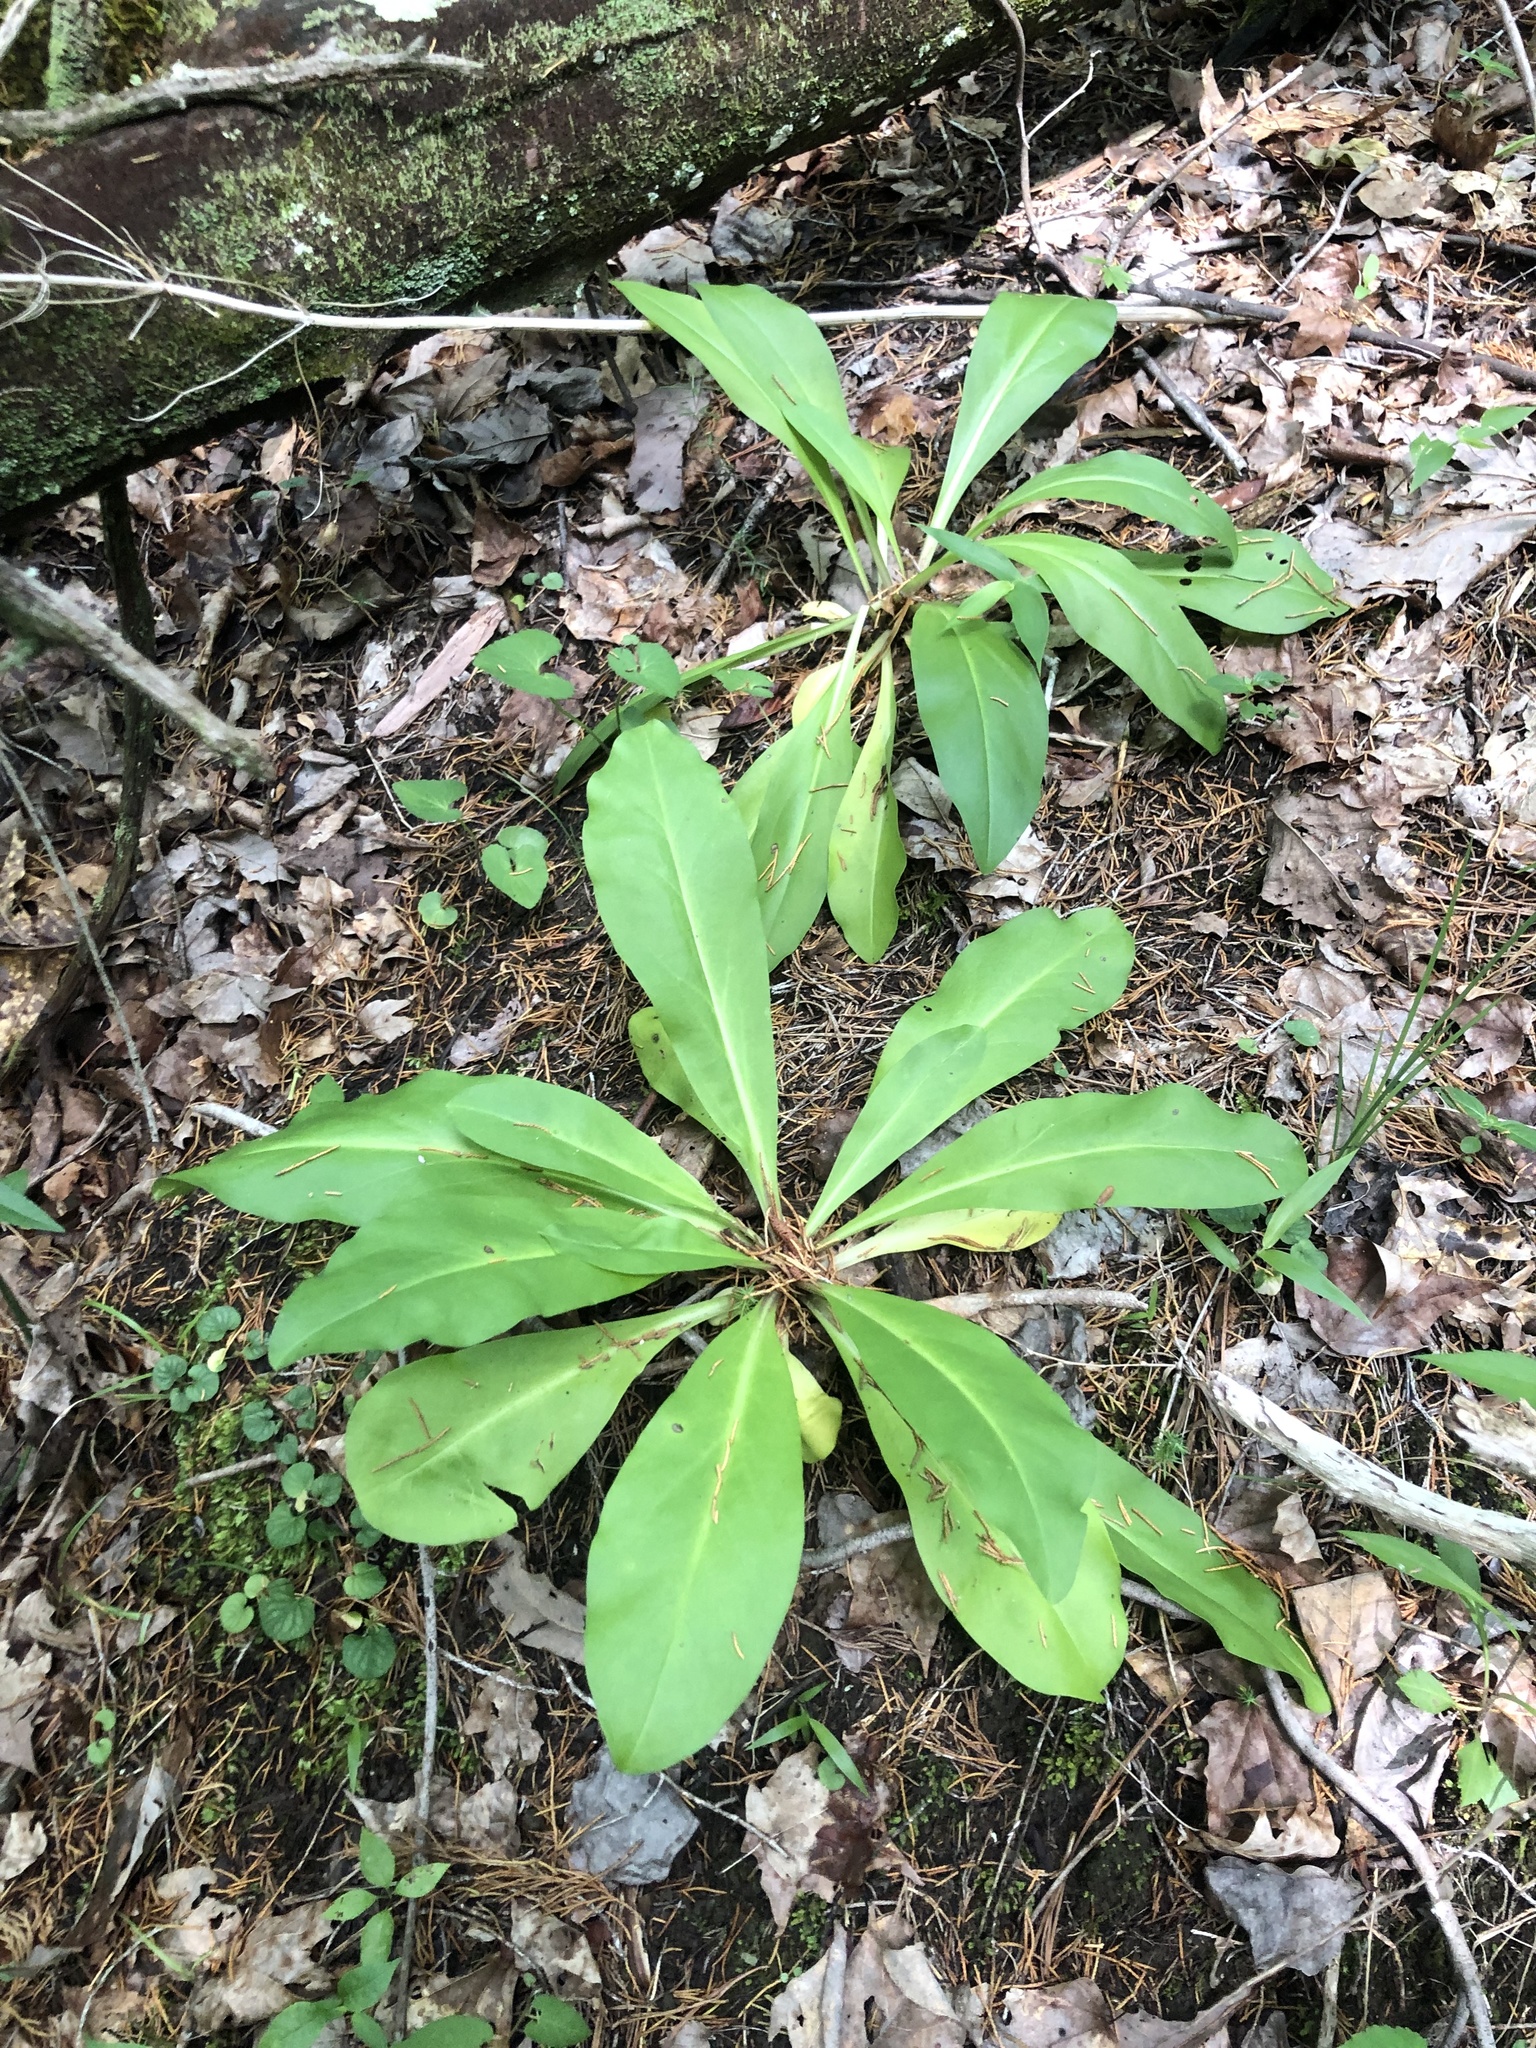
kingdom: Plantae
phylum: Tracheophyta
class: Magnoliopsida
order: Gentianales
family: Gentianaceae
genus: Frasera
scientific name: Frasera caroliniensis
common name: American columbo
